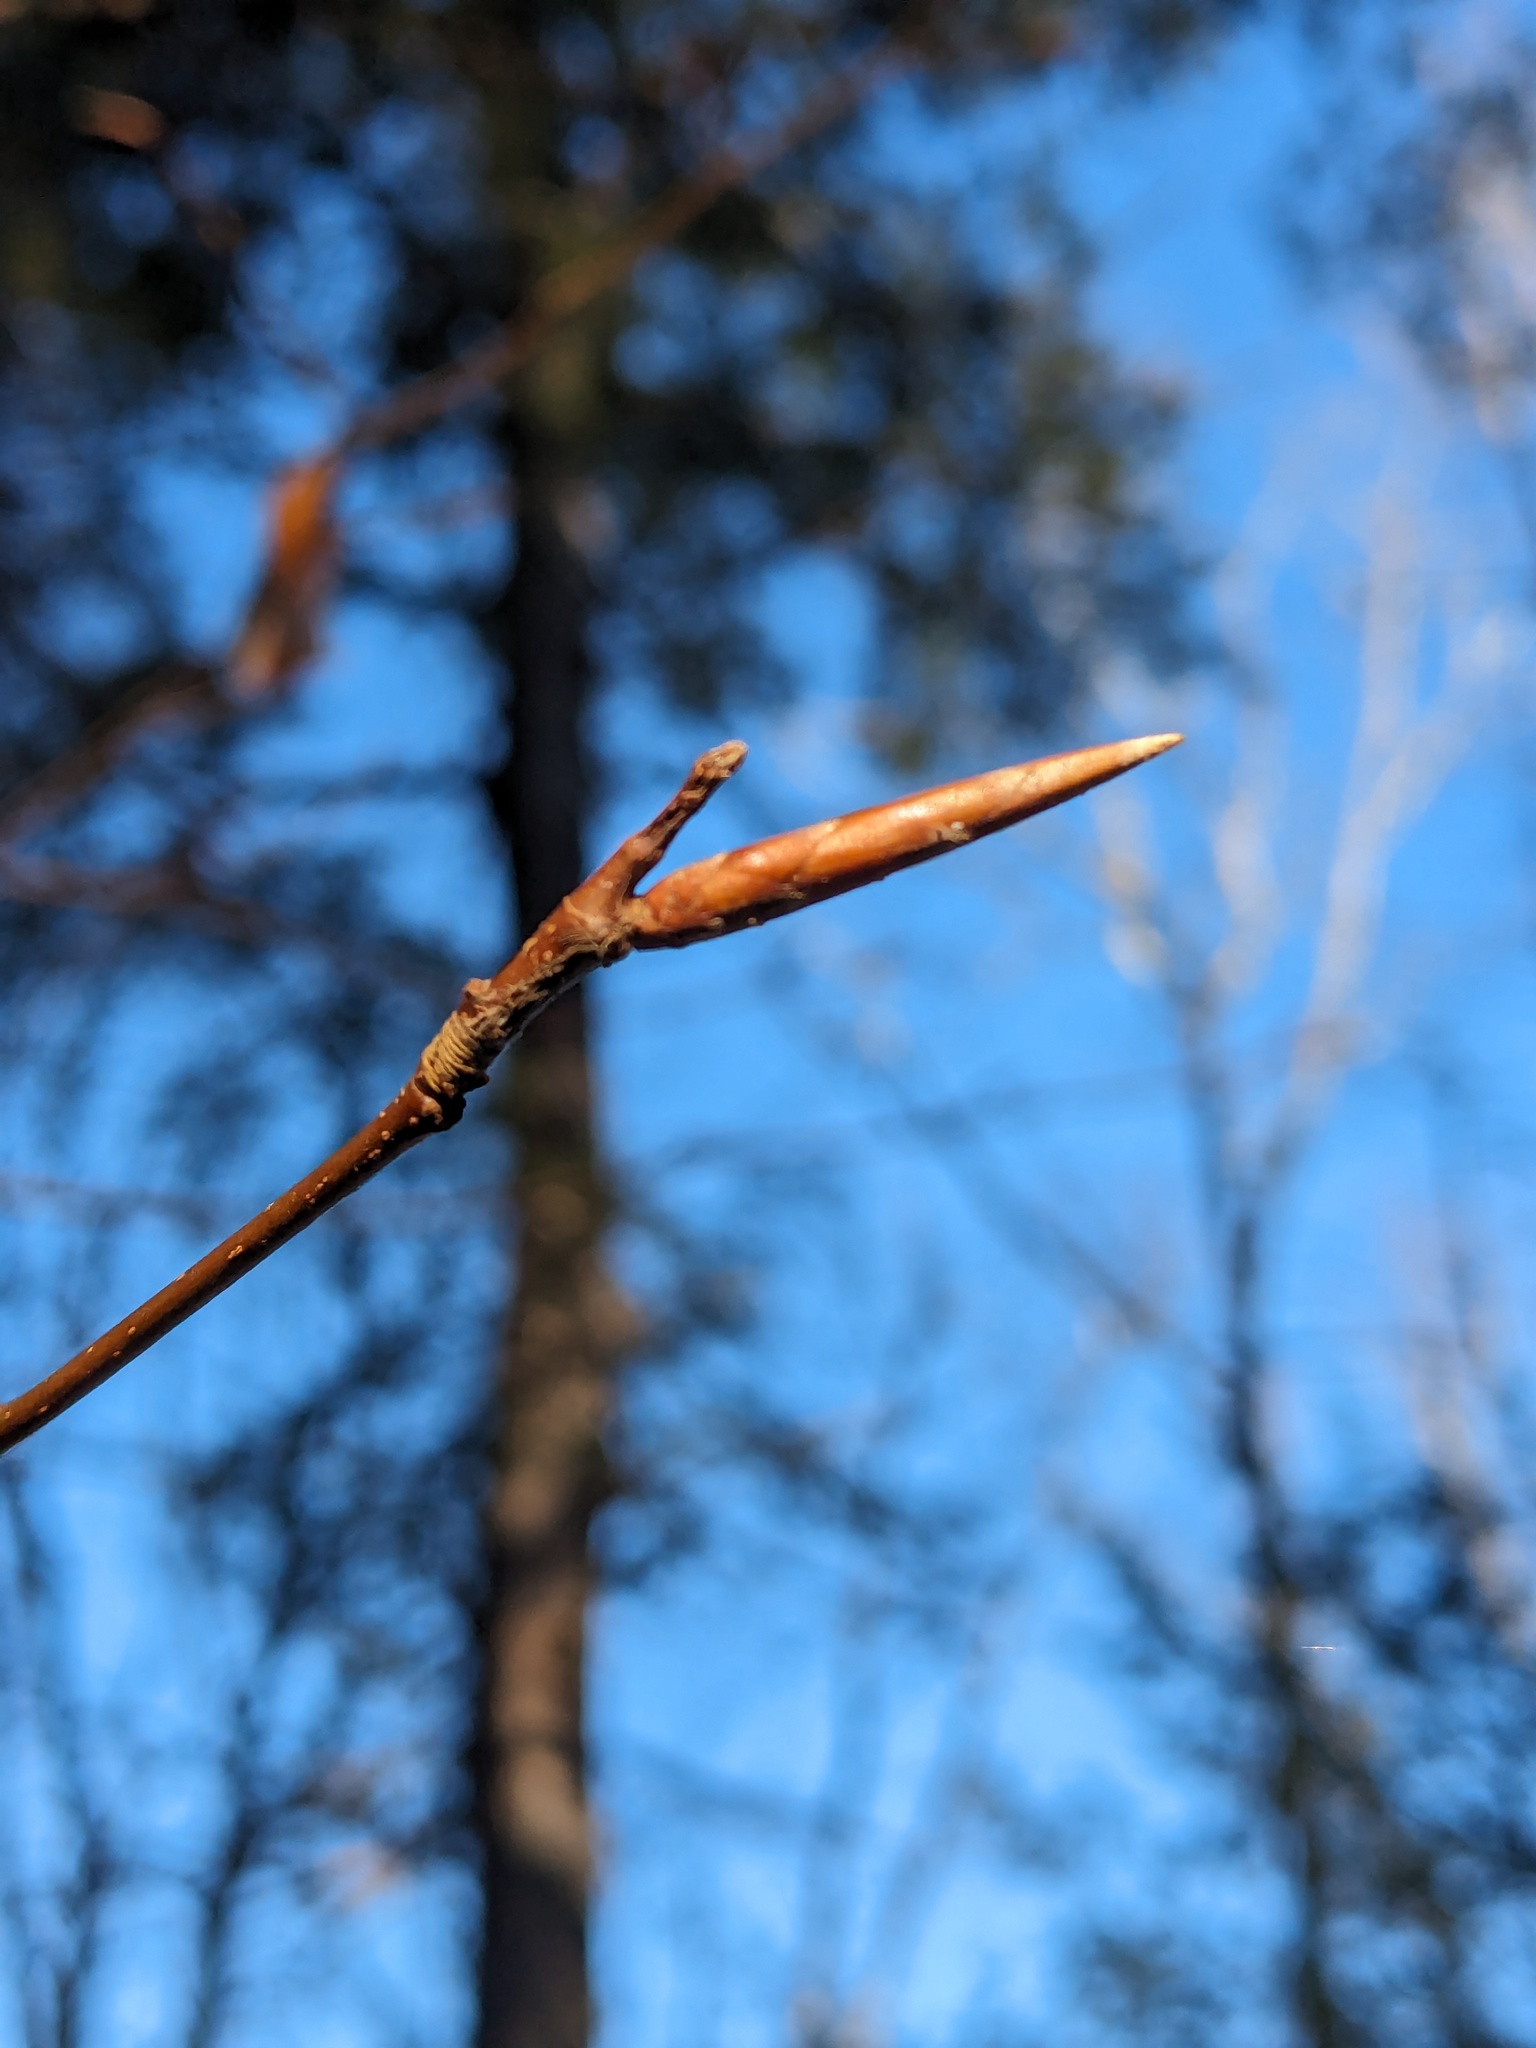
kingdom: Plantae
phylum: Tracheophyta
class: Magnoliopsida
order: Fagales
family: Fagaceae
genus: Fagus
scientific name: Fagus grandifolia
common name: American beech
